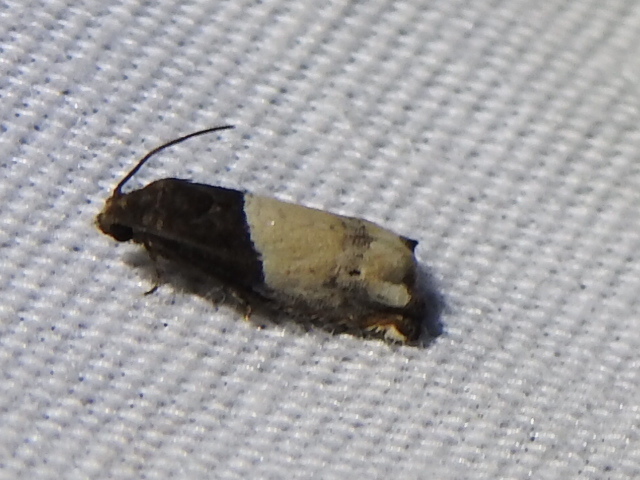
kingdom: Animalia
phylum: Arthropoda
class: Insecta
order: Lepidoptera
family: Tortricidae
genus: Epiblema
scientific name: Epiblema scudderiana
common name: Goldenrod gall moth
